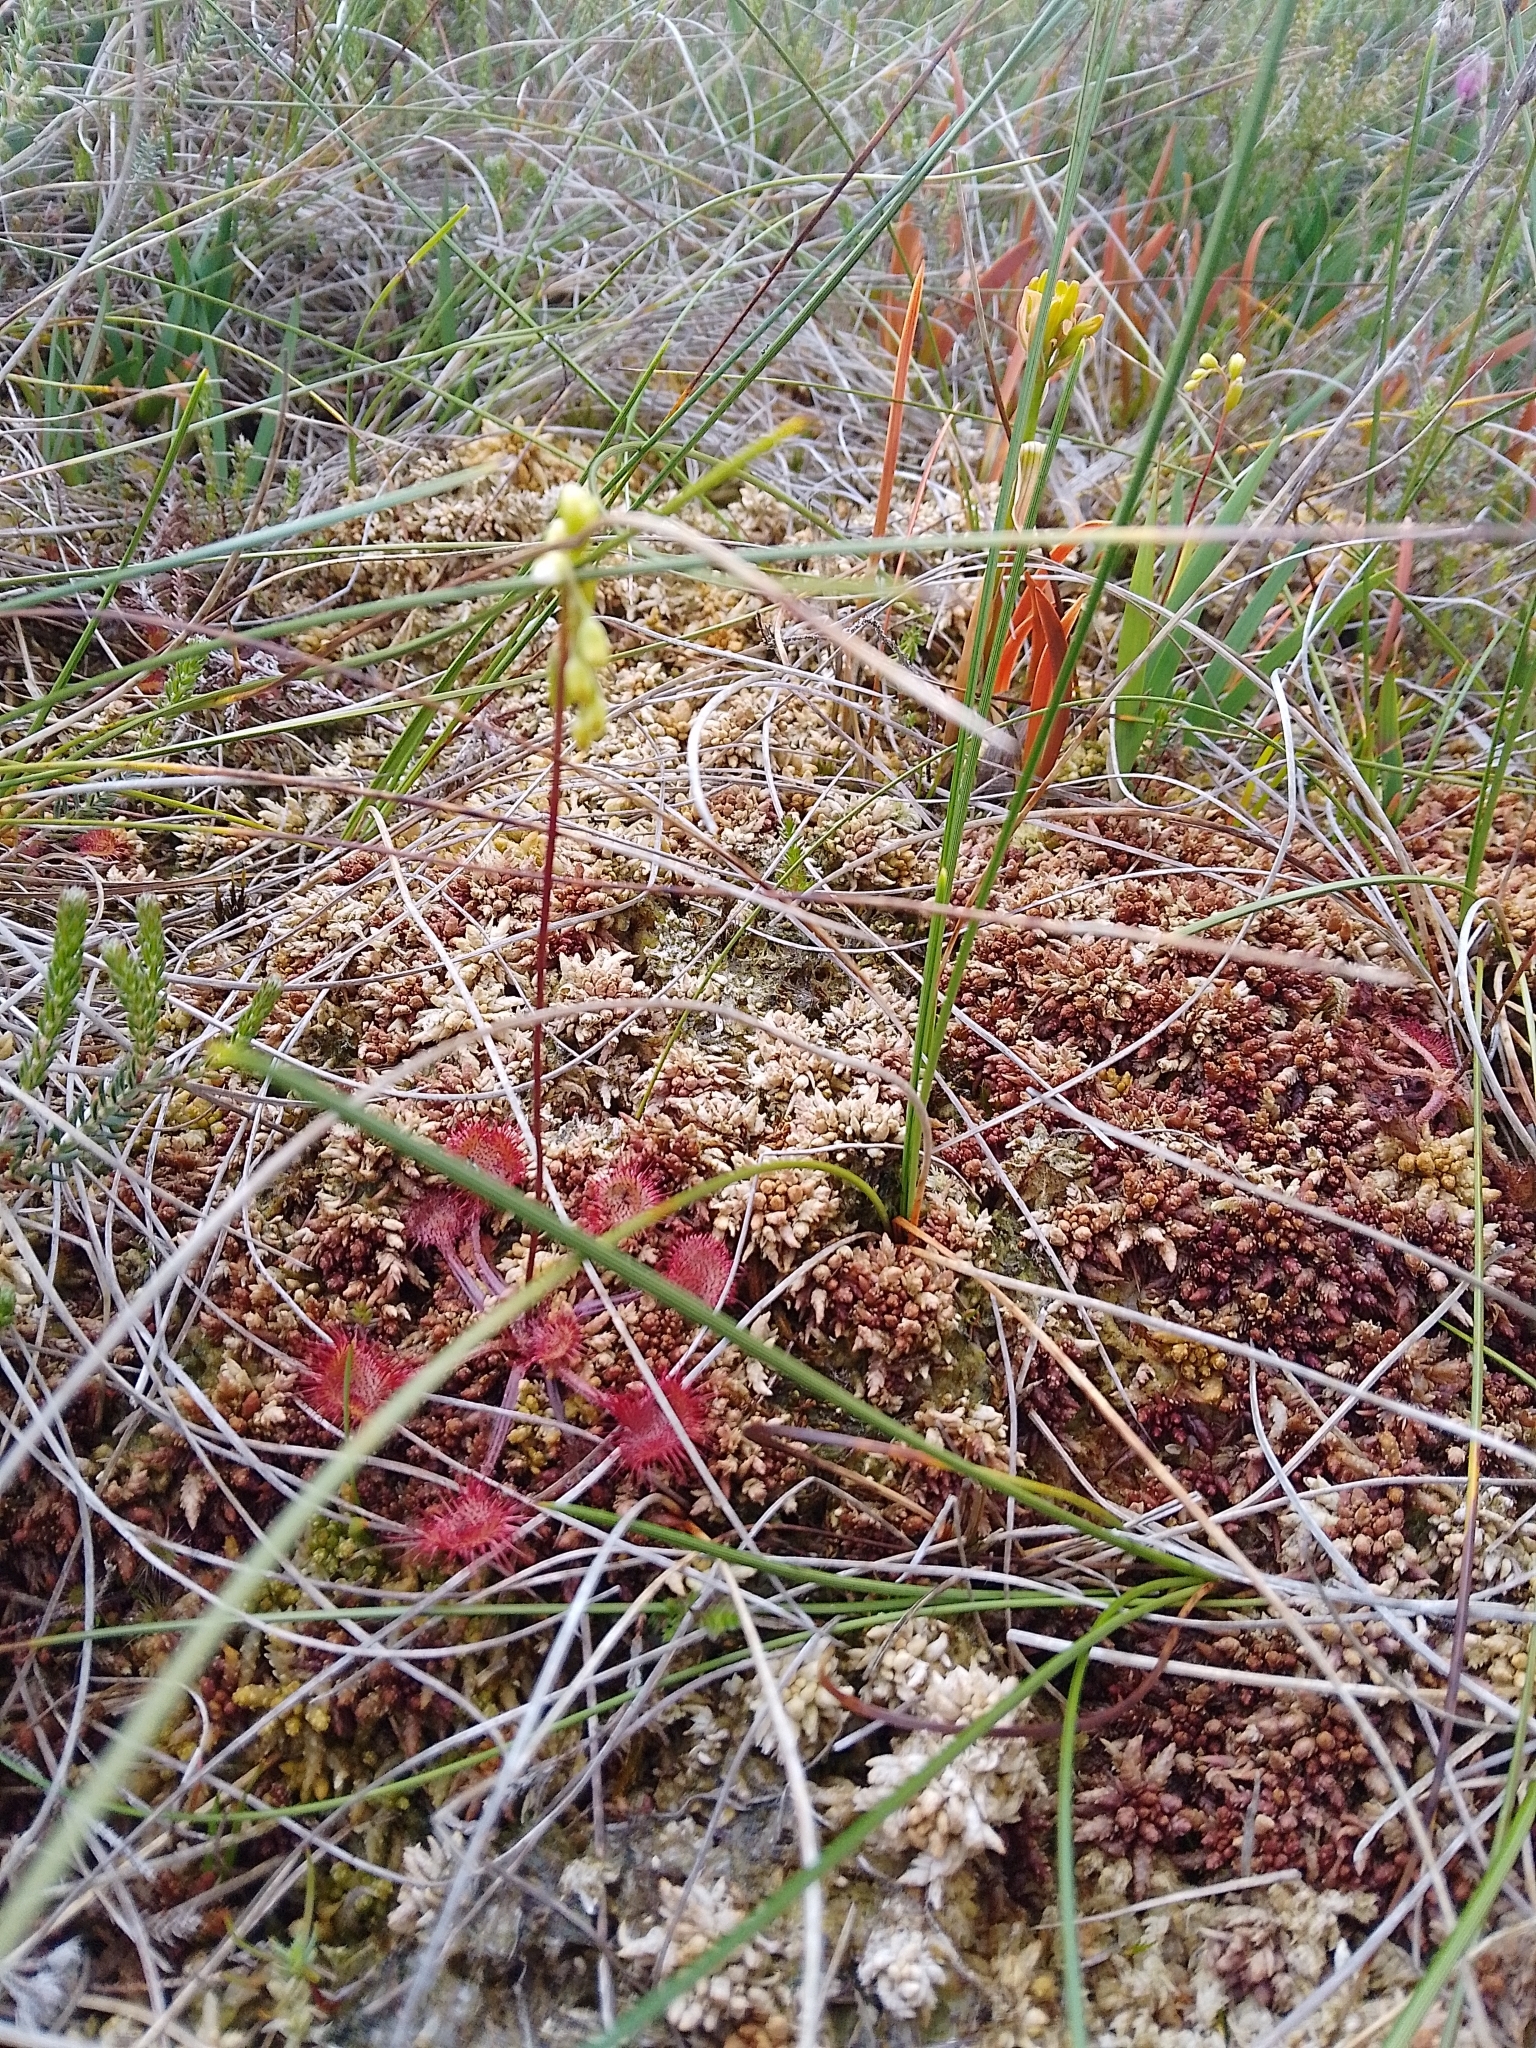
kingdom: Plantae
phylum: Tracheophyta
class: Magnoliopsida
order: Caryophyllales
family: Droseraceae
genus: Drosera
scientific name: Drosera rotundifolia
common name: Round-leaved sundew
